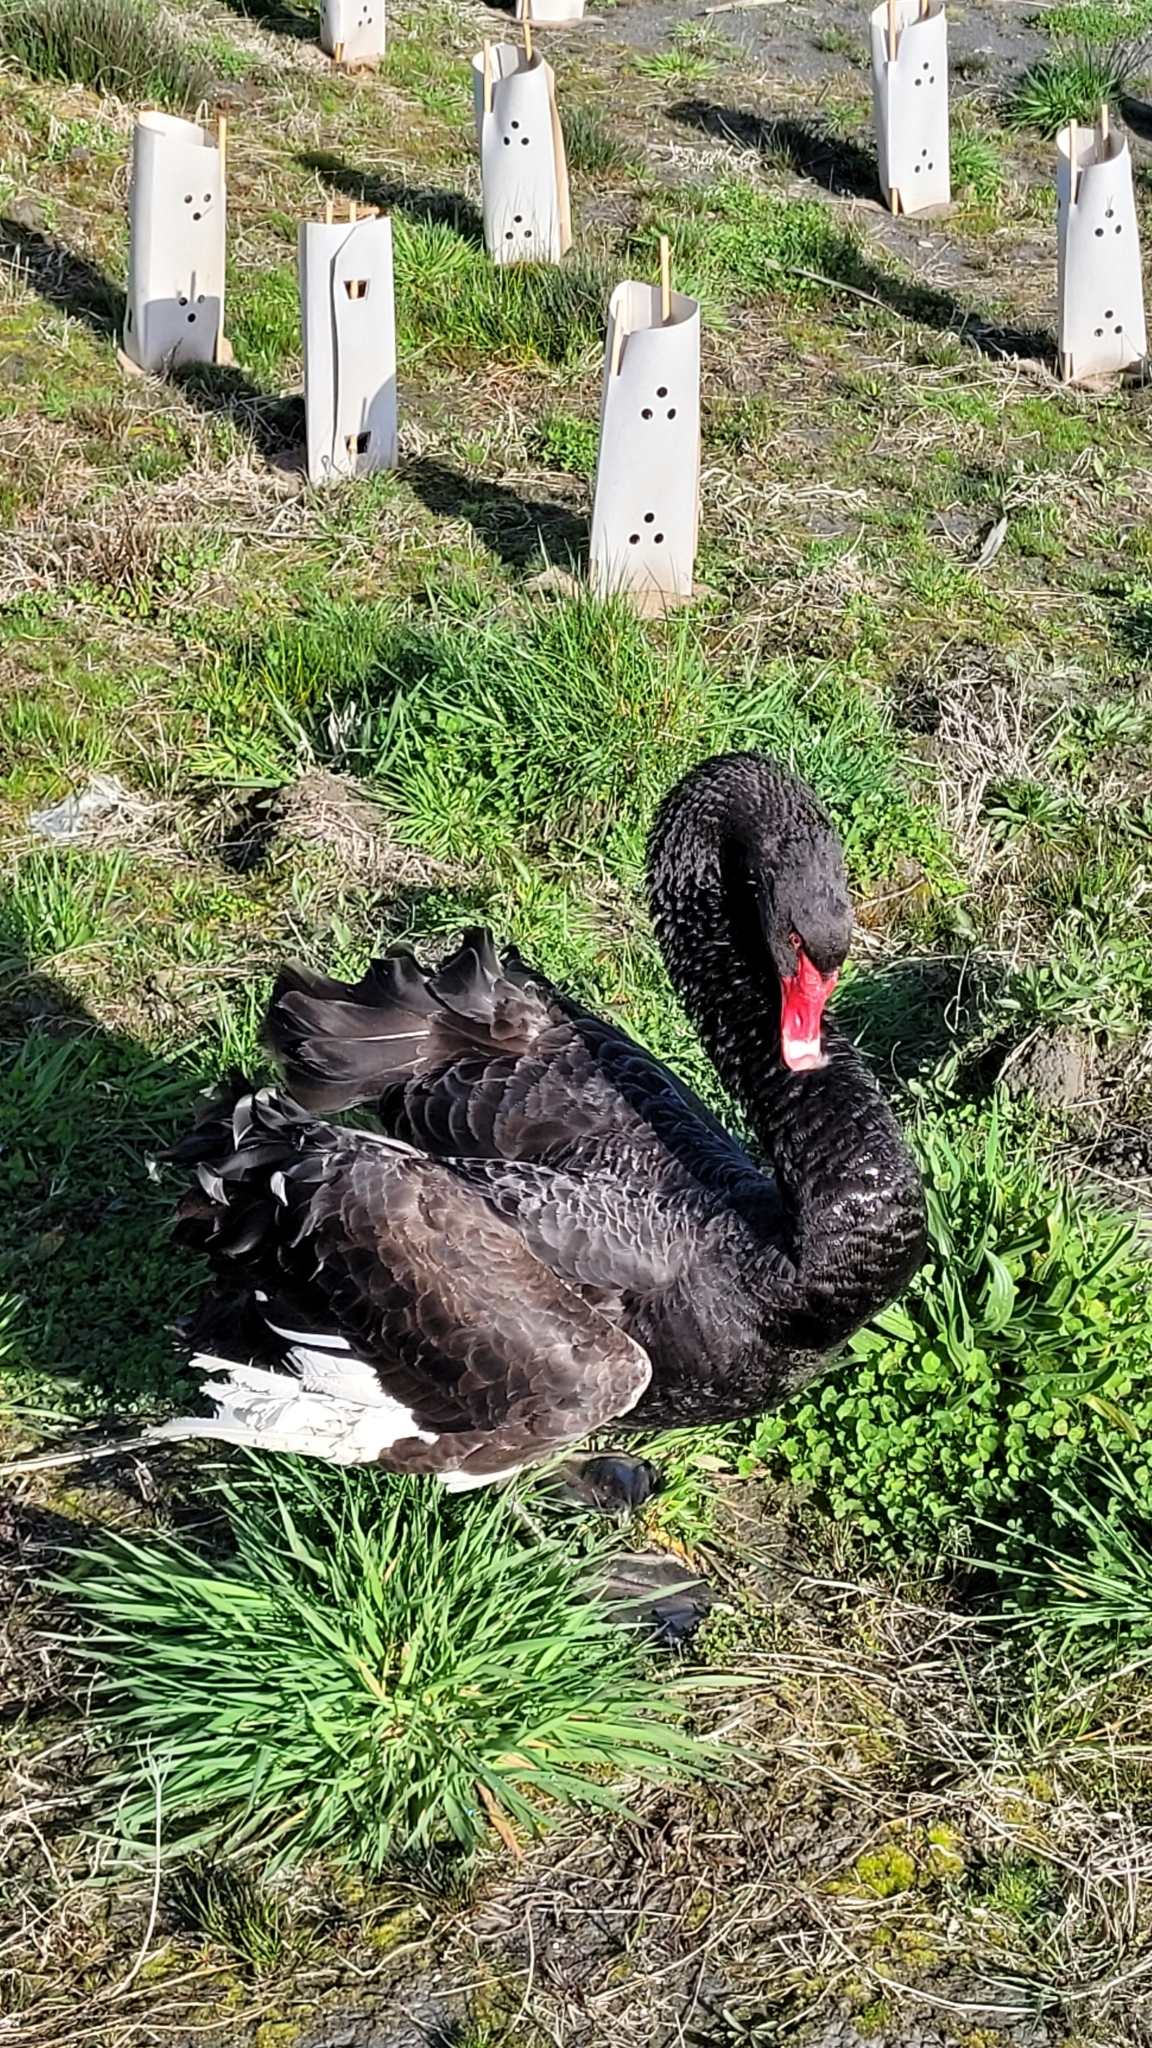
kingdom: Animalia
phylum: Chordata
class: Aves
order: Anseriformes
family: Anatidae
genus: Cygnus
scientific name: Cygnus atratus
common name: Black swan
